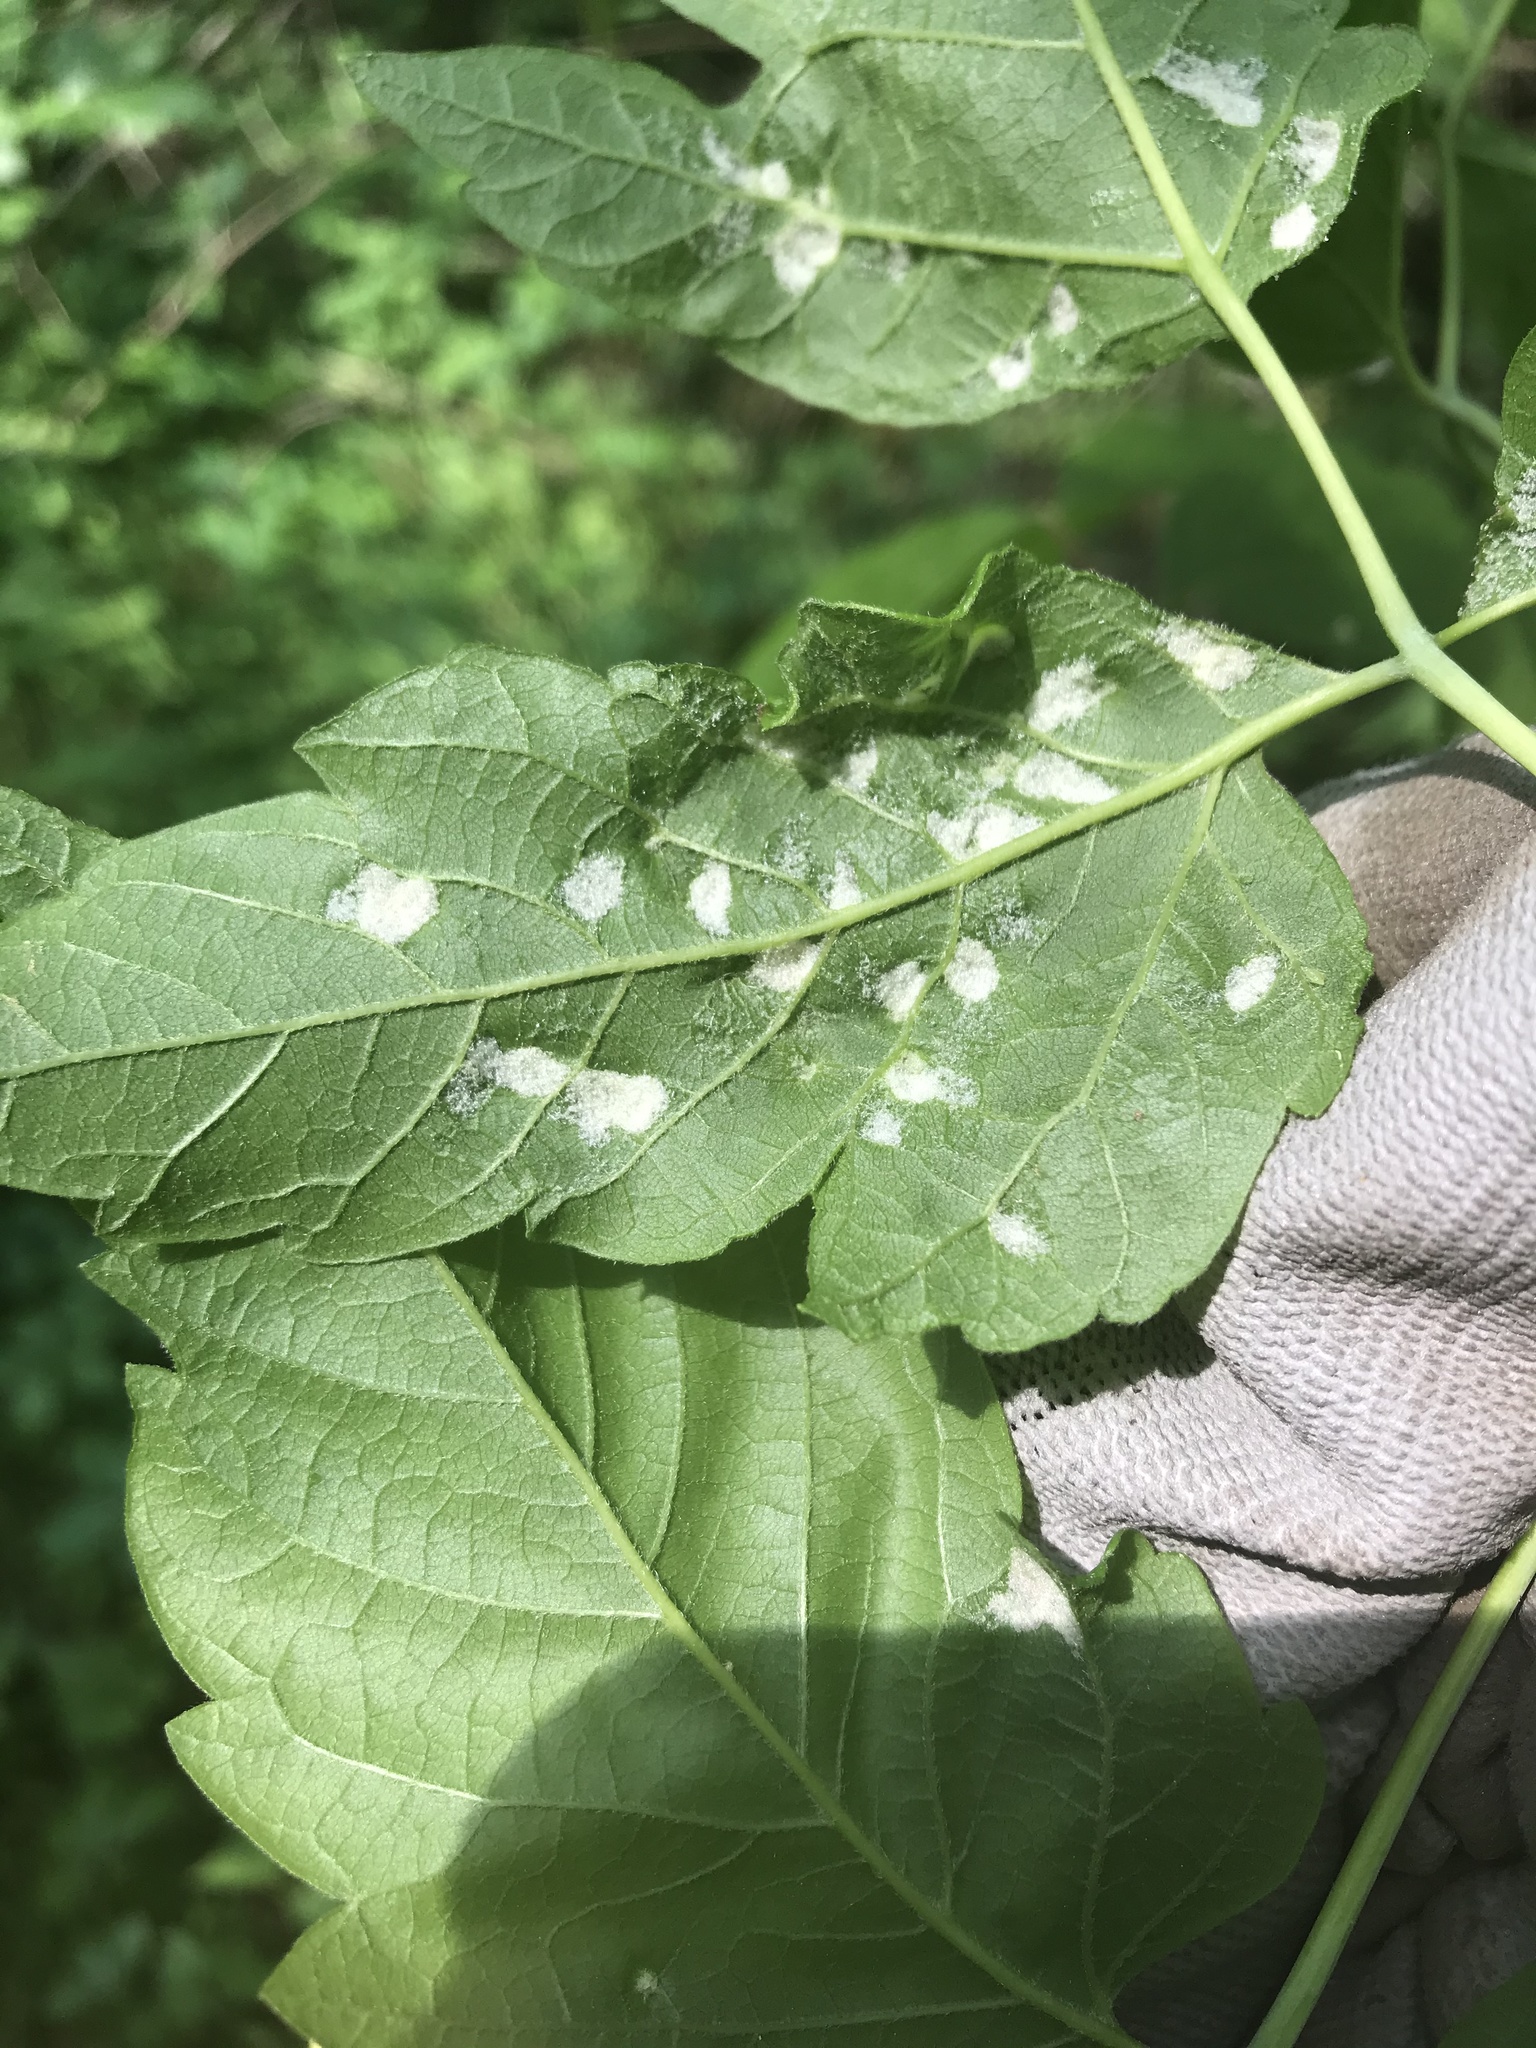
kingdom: Animalia
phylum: Arthropoda
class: Arachnida
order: Trombidiformes
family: Eriophyidae
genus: Aceria
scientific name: Aceria
